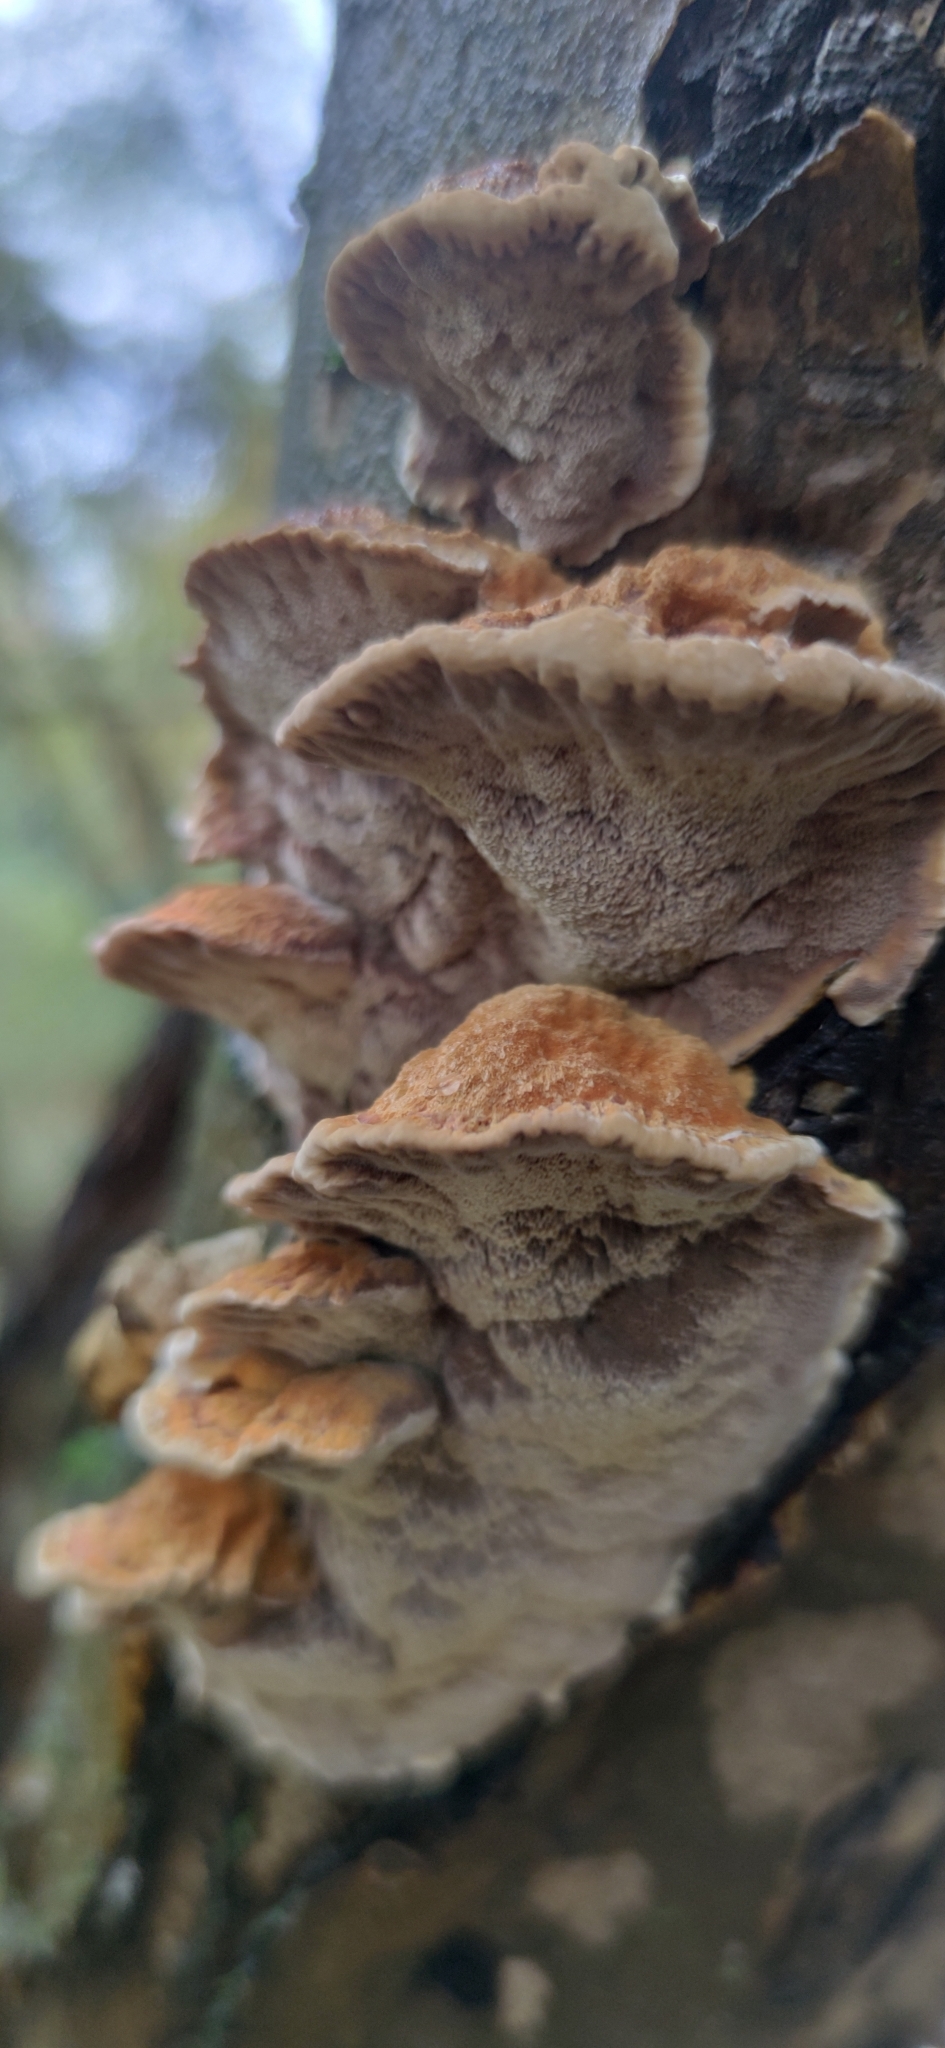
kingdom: Fungi
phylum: Basidiomycota
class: Agaricomycetes
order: Hymenochaetales
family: Hymenochaetaceae
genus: Xanthoporia
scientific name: Xanthoporia radiata
